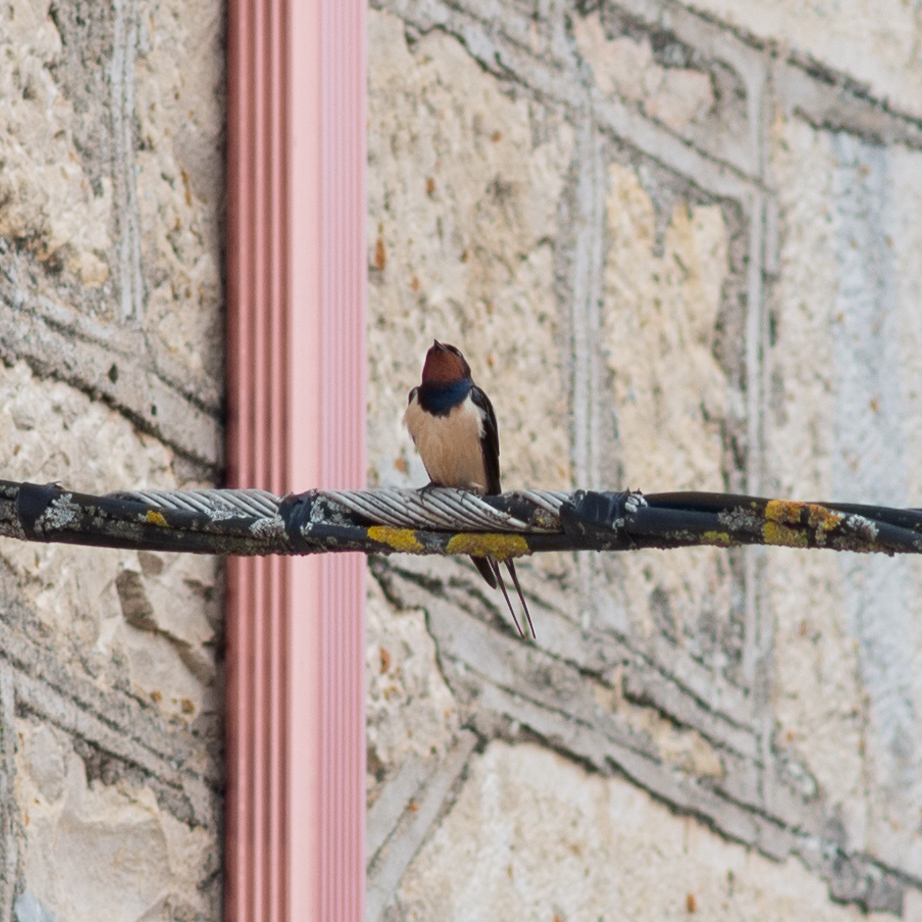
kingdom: Animalia
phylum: Chordata
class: Aves
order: Passeriformes
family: Hirundinidae
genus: Hirundo
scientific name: Hirundo rustica
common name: Barn swallow
